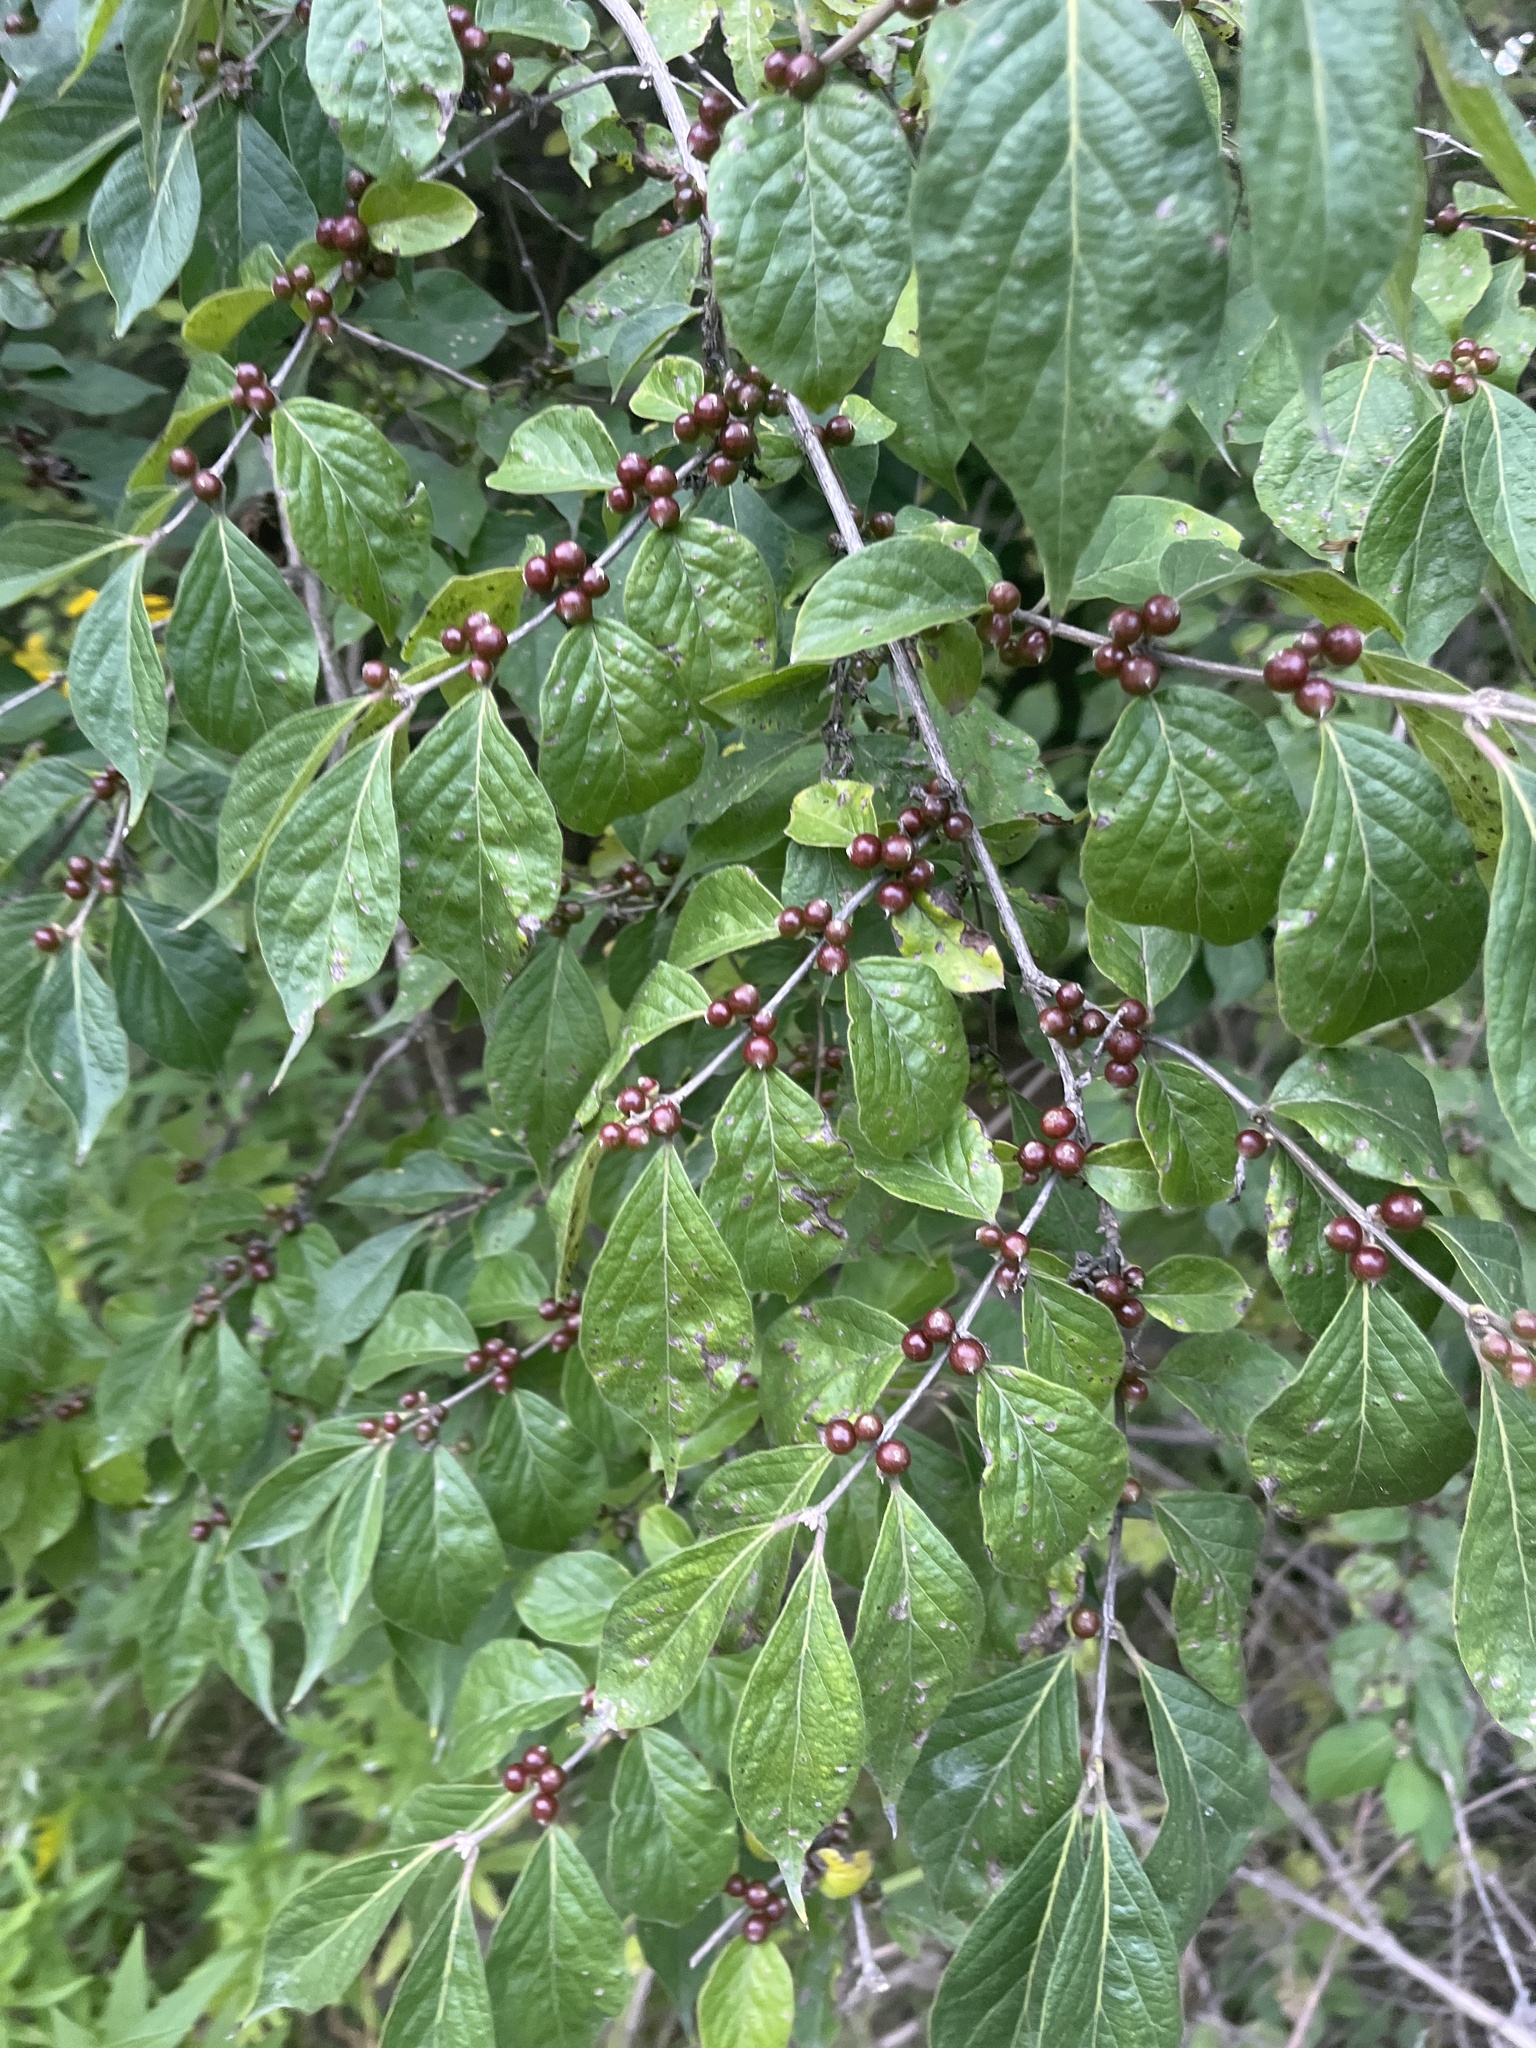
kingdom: Plantae
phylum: Tracheophyta
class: Magnoliopsida
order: Dipsacales
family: Caprifoliaceae
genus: Lonicera
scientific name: Lonicera maackii
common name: Amur honeysuckle
